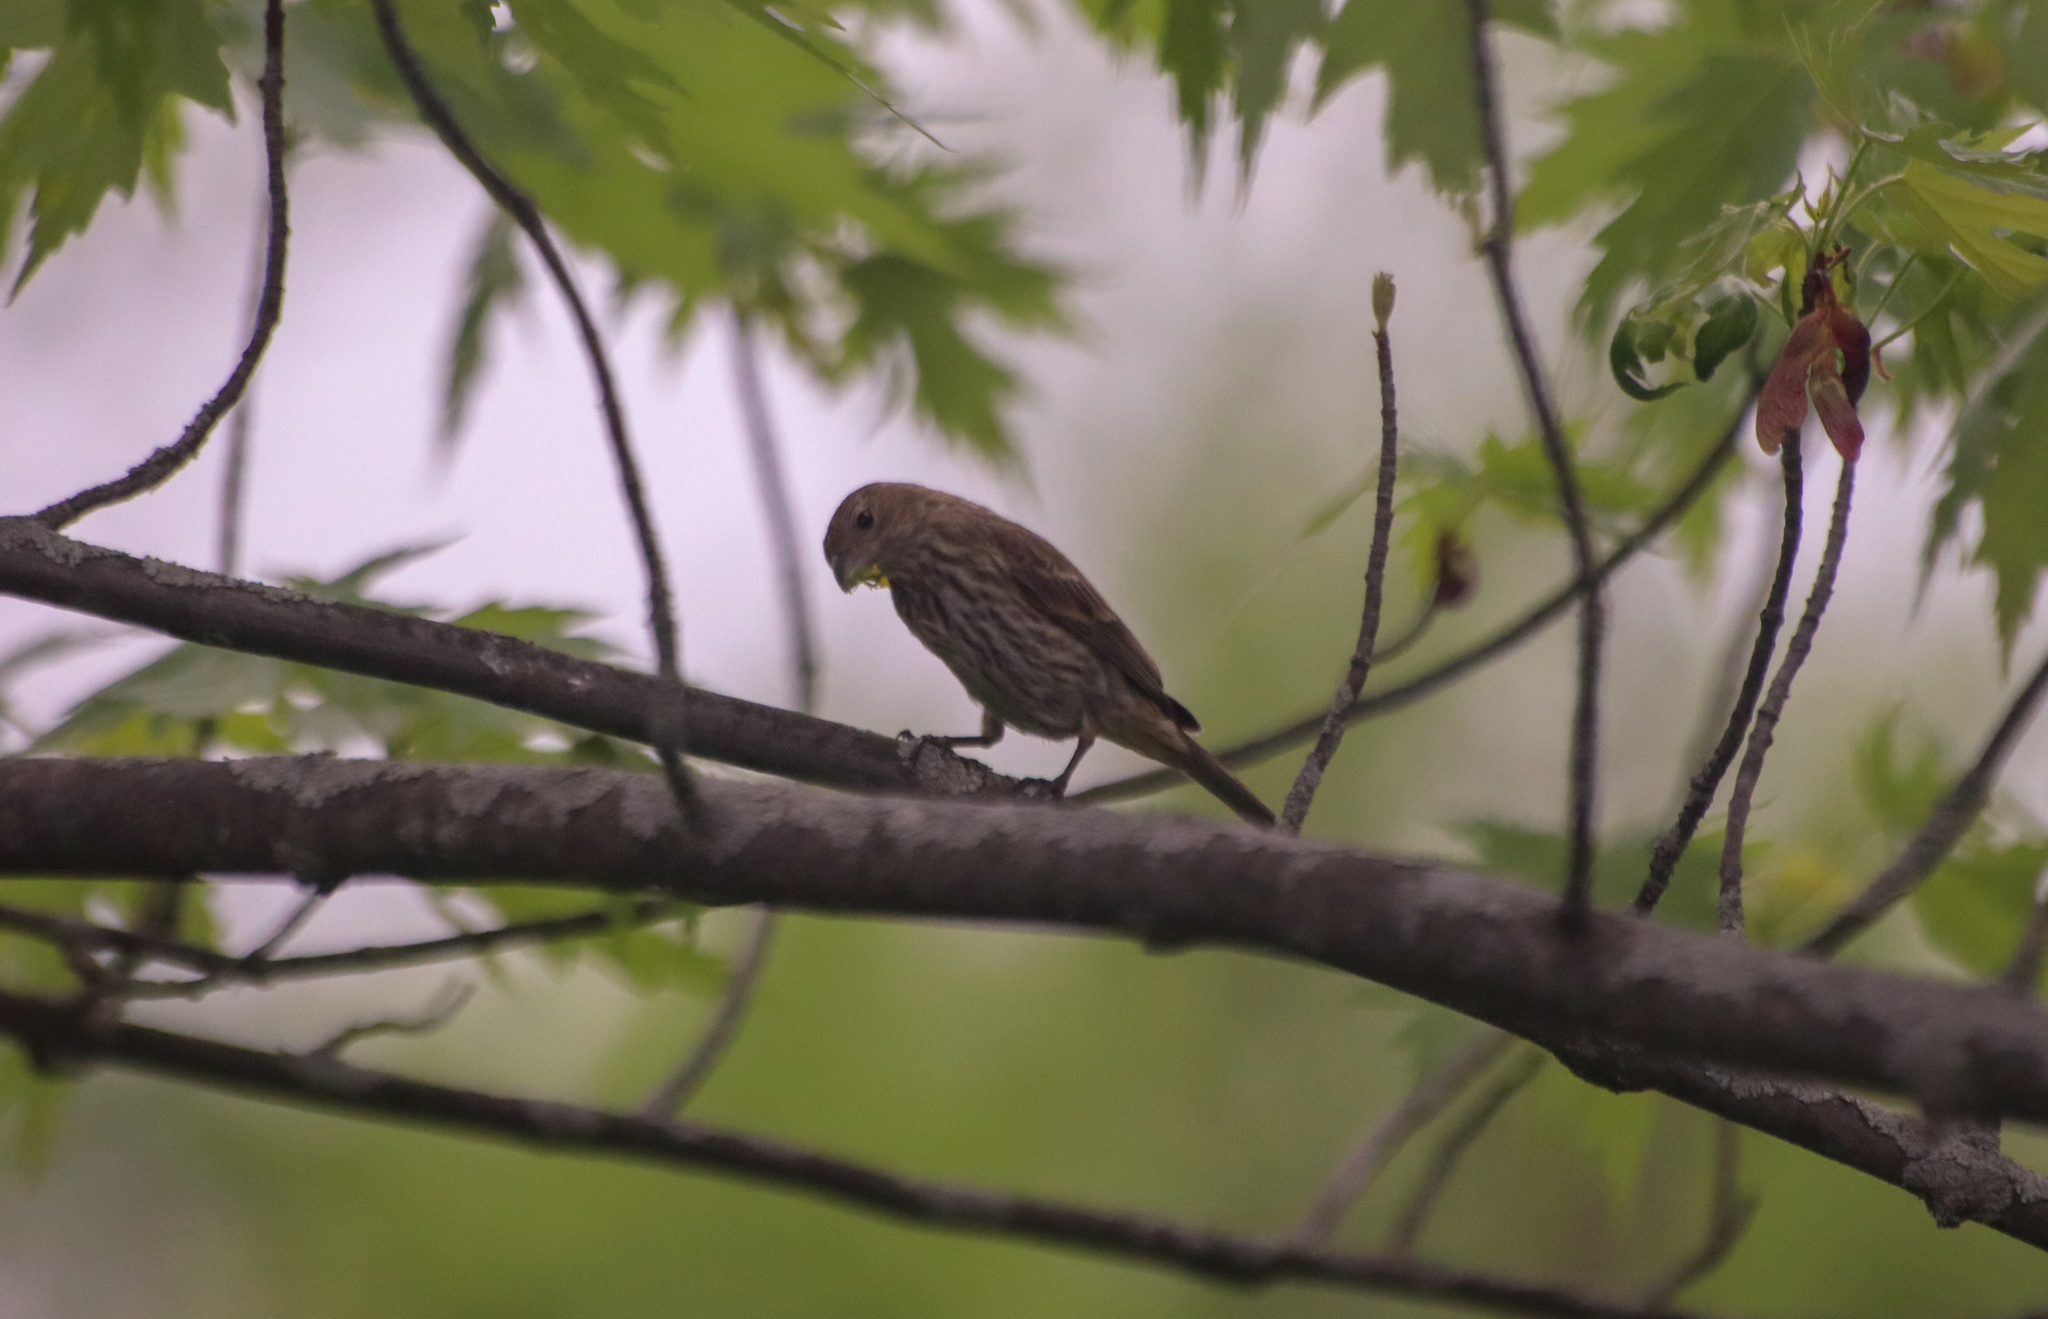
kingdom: Animalia
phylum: Chordata
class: Aves
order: Passeriformes
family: Fringillidae
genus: Haemorhous
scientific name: Haemorhous mexicanus
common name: House finch
